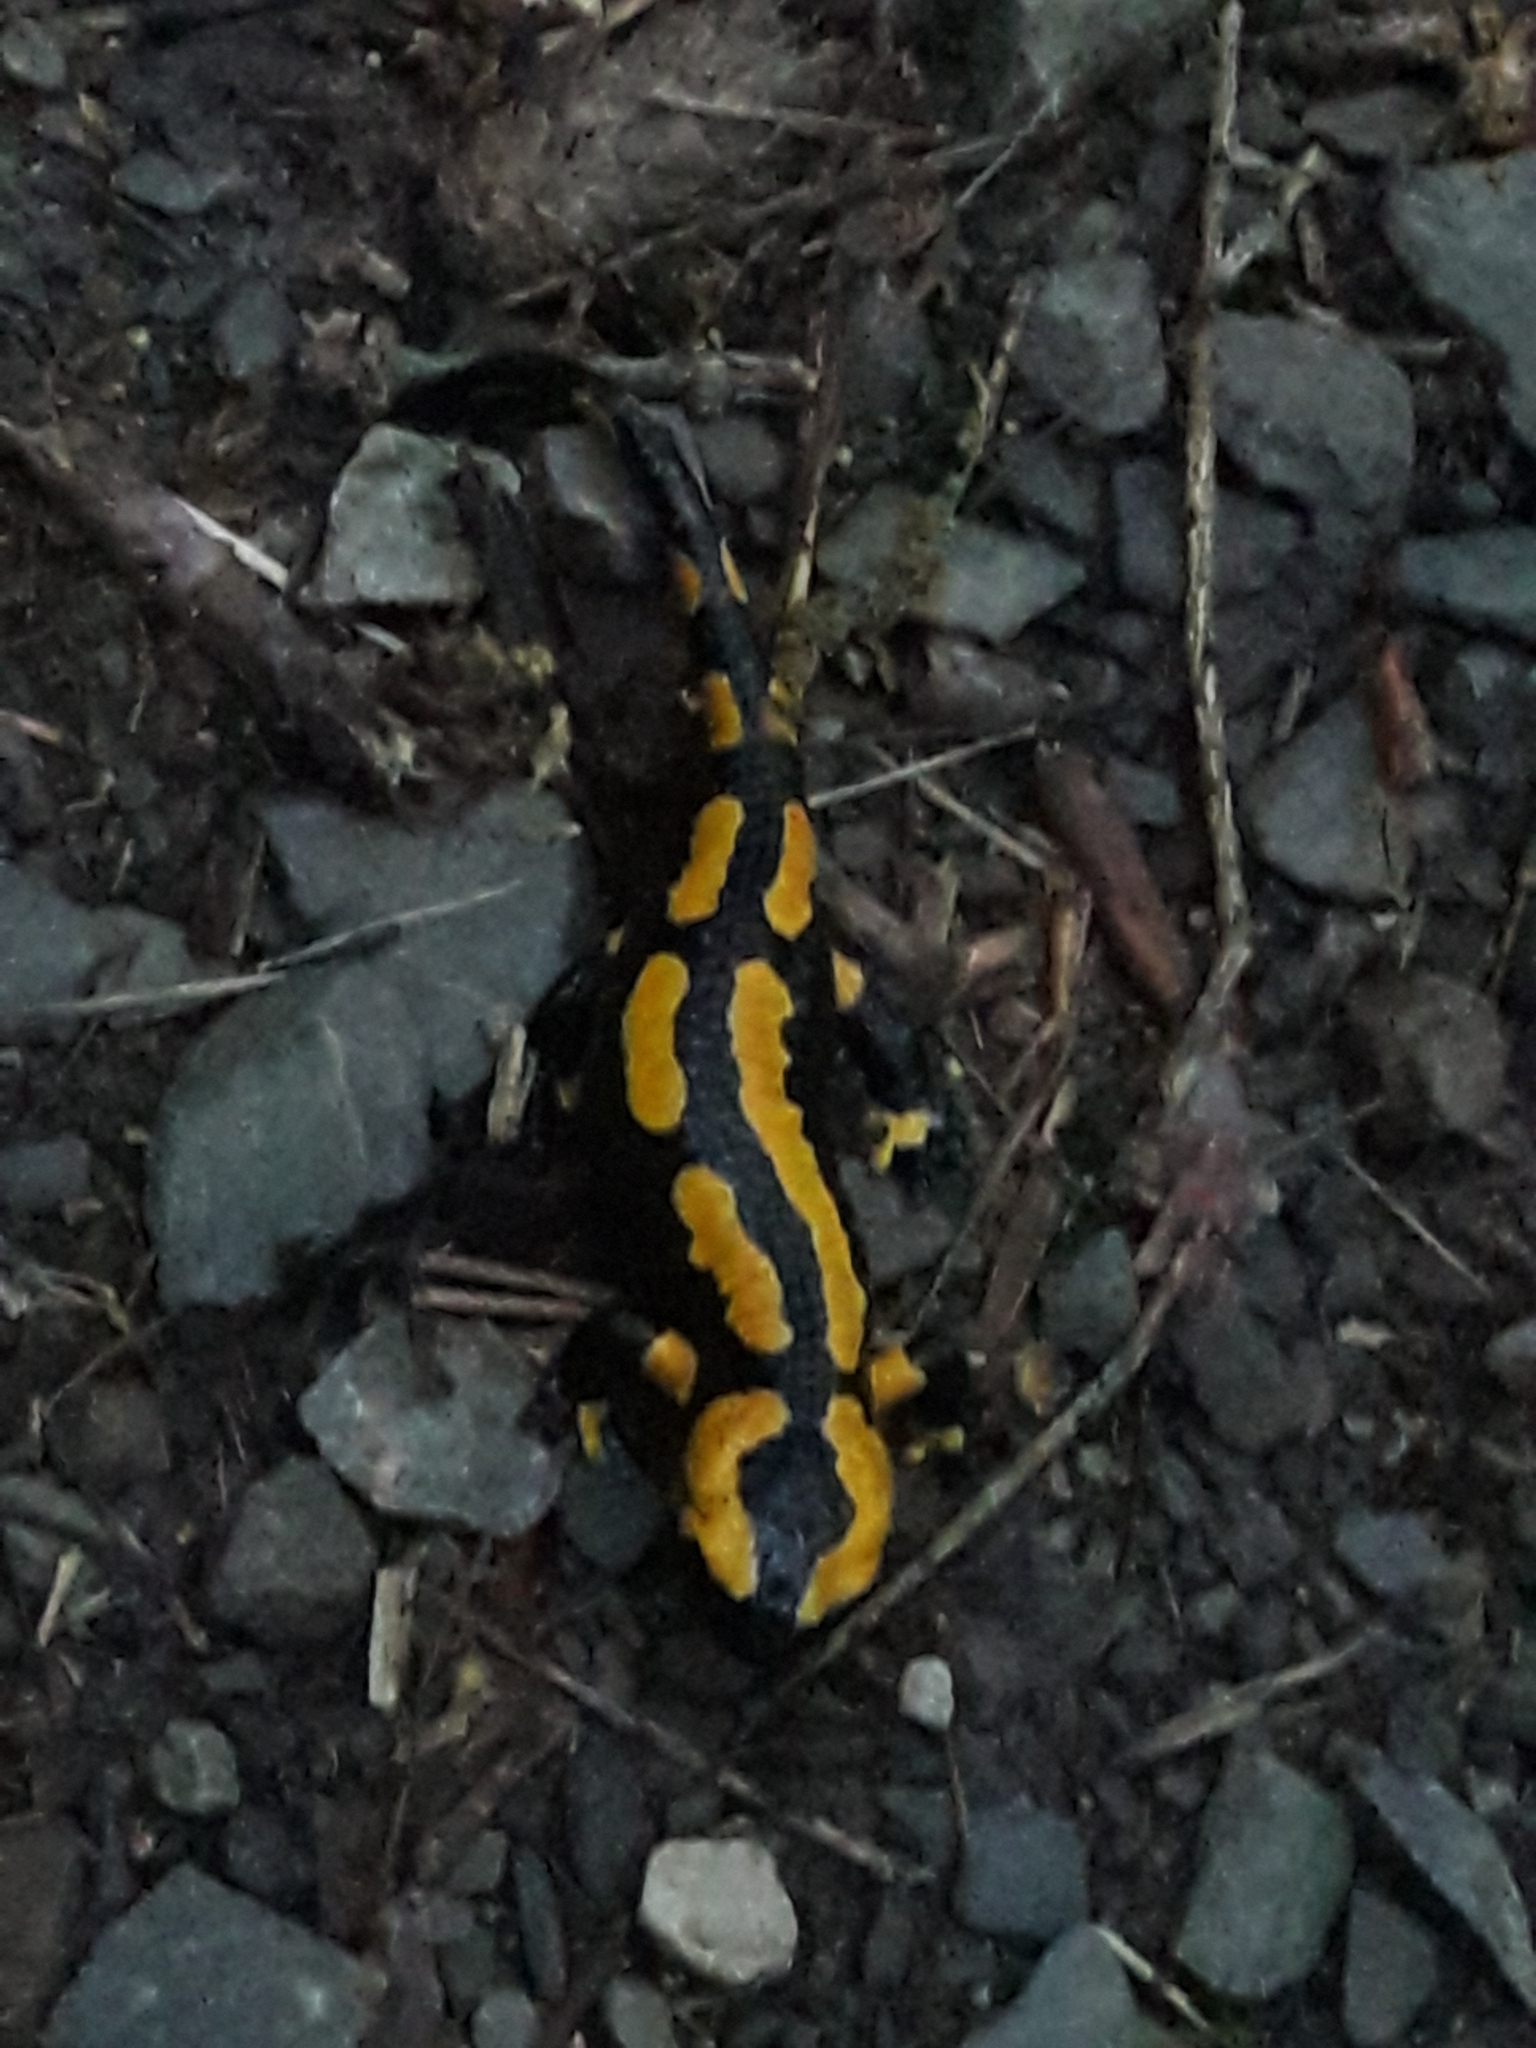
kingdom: Animalia
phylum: Chordata
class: Amphibia
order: Caudata
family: Salamandridae
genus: Salamandra
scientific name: Salamandra salamandra
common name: Fire salamander
